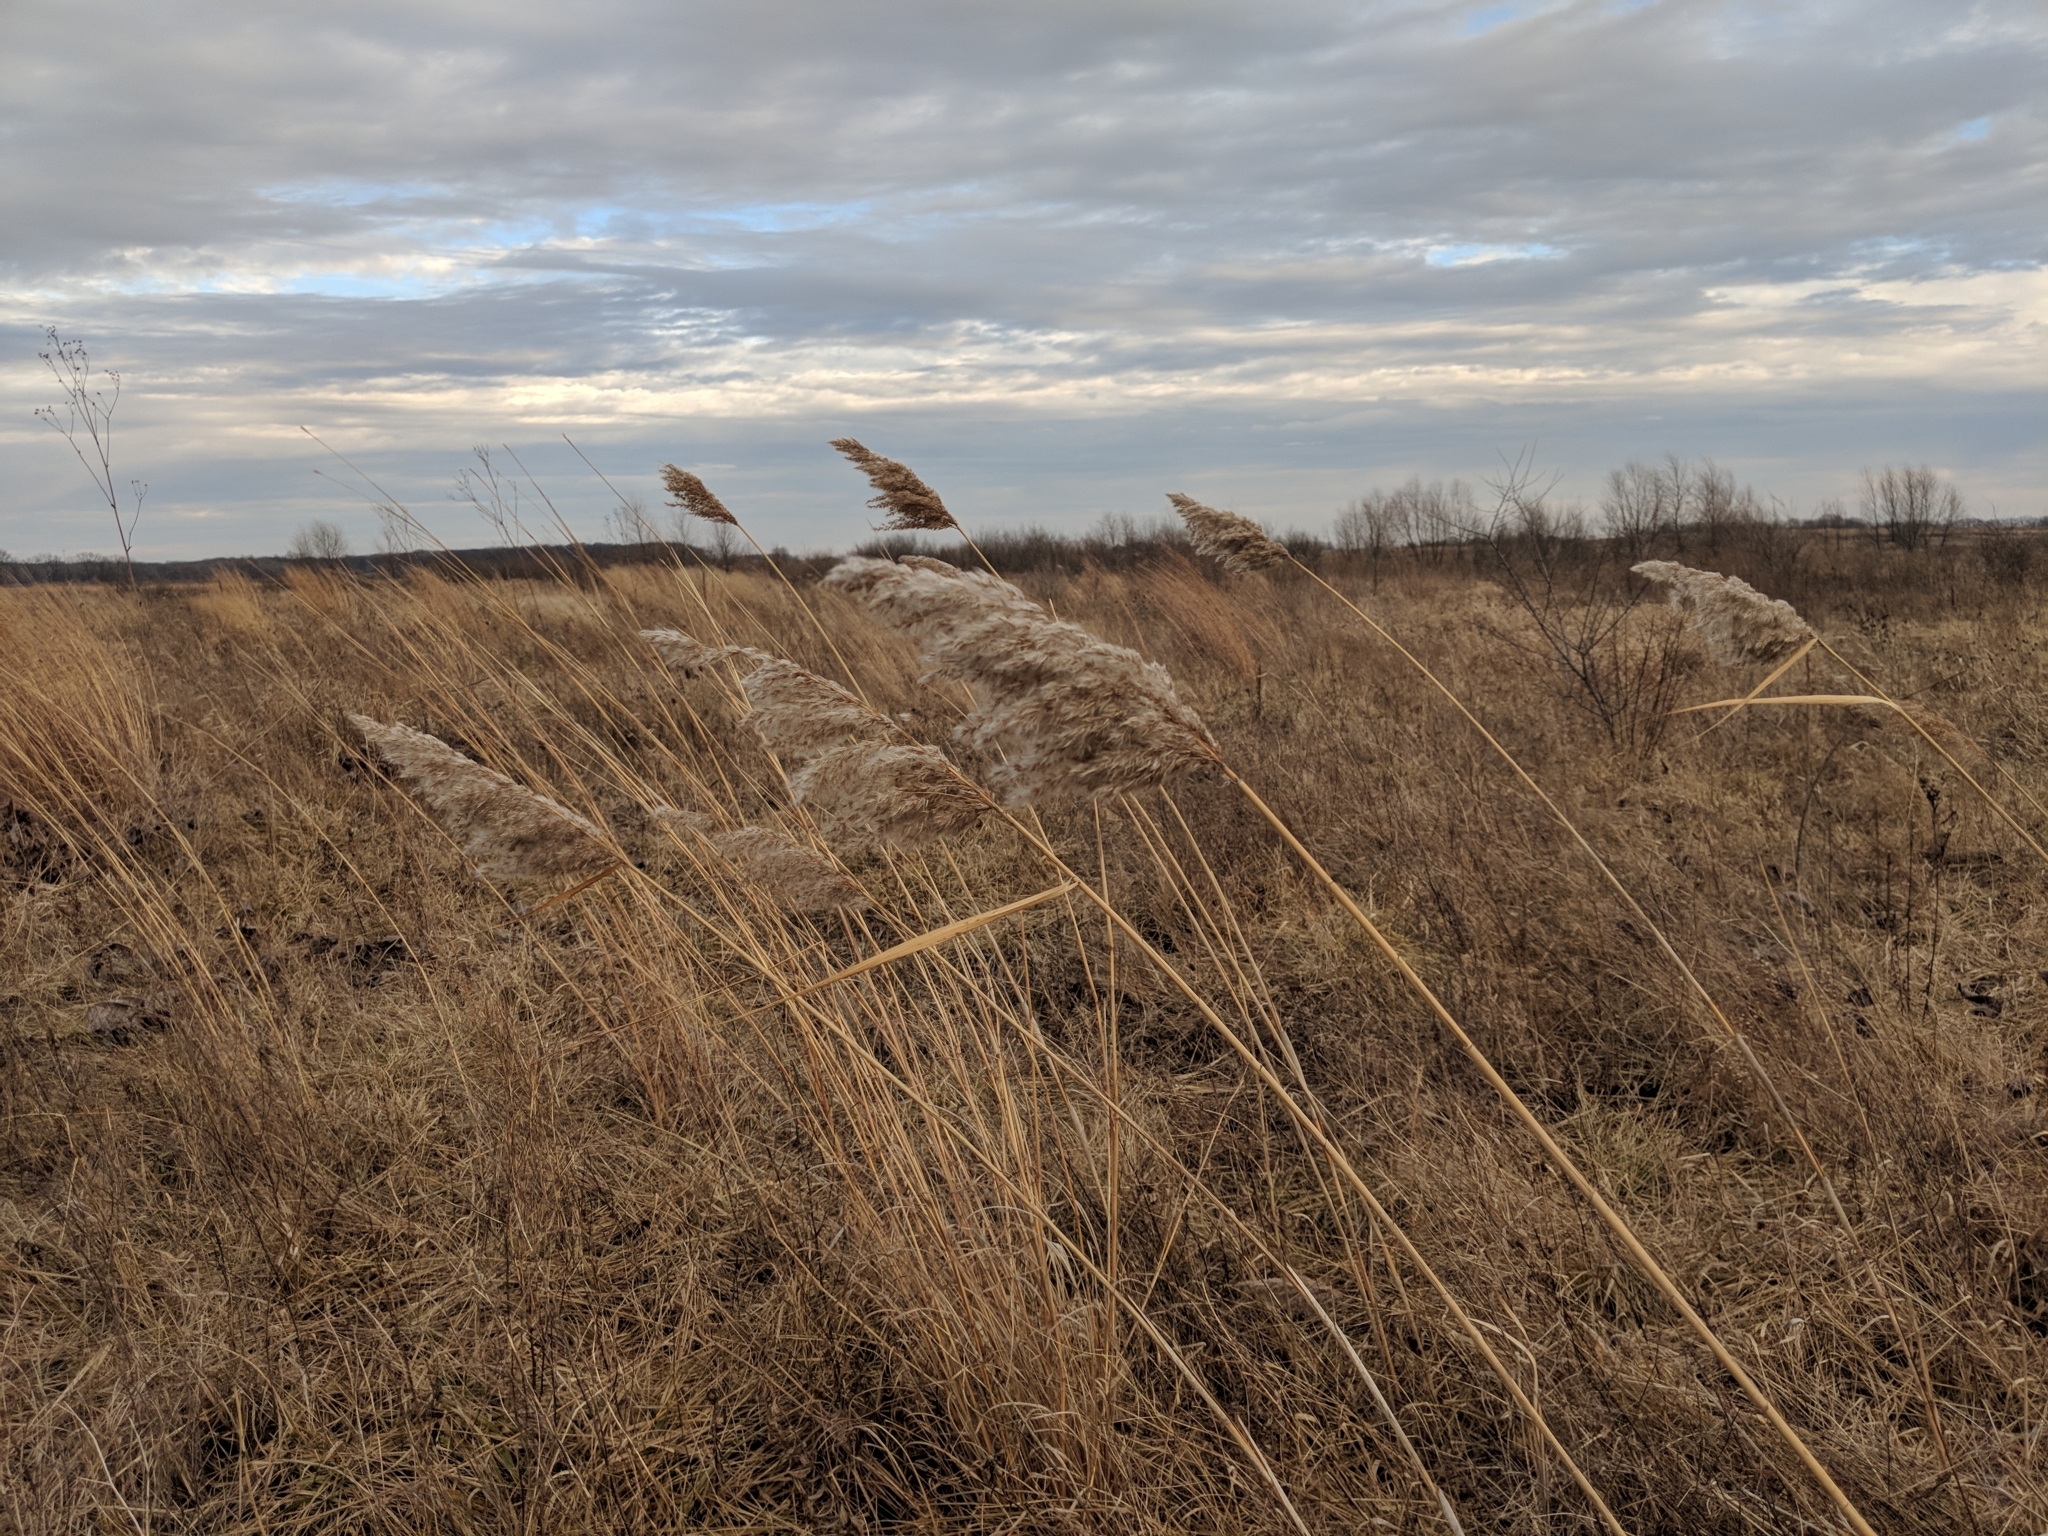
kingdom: Plantae
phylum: Tracheophyta
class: Liliopsida
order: Poales
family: Poaceae
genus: Phragmites
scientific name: Phragmites australis
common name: Common reed
